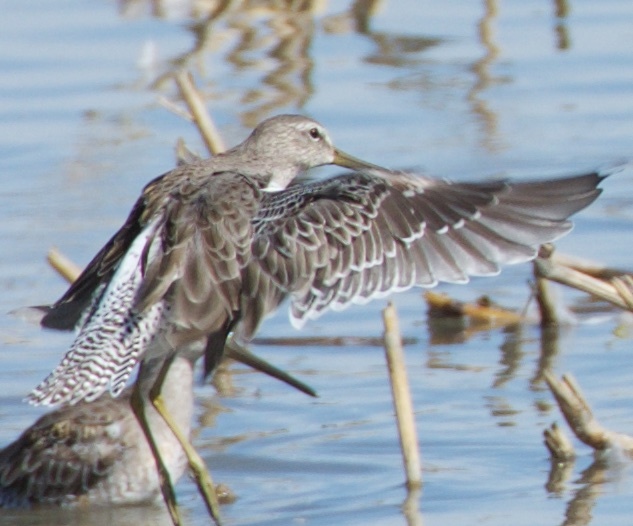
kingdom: Animalia
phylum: Chordata
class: Aves
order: Charadriiformes
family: Scolopacidae
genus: Limnodromus
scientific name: Limnodromus scolopaceus
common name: Long-billed dowitcher
